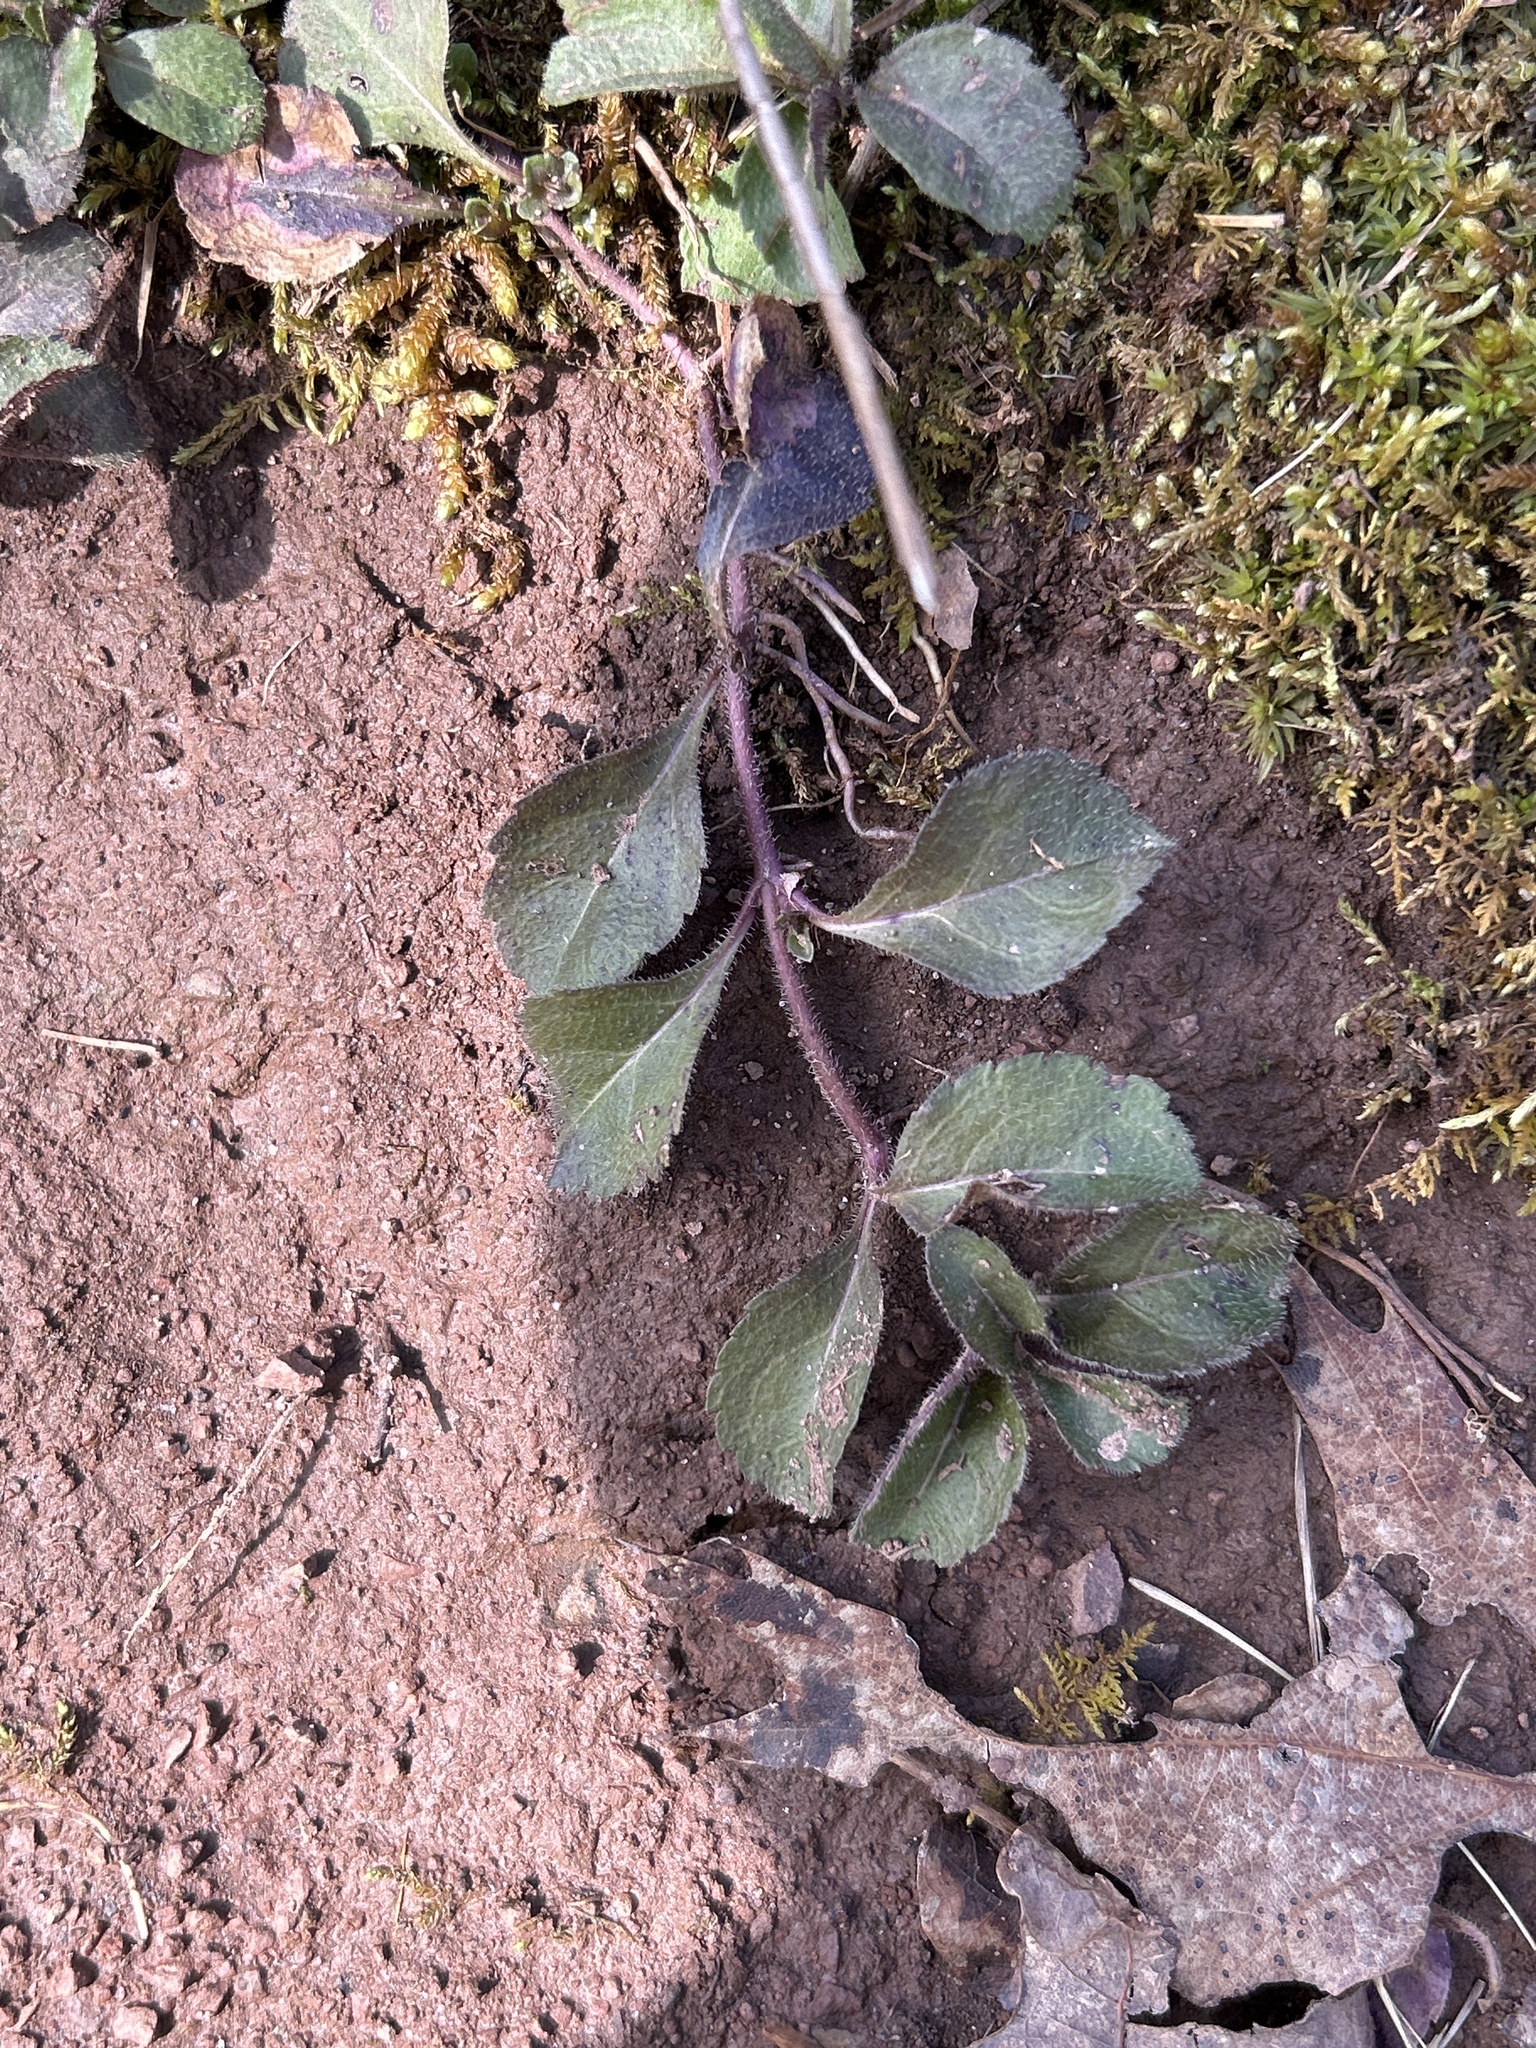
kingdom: Plantae
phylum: Tracheophyta
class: Magnoliopsida
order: Lamiales
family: Plantaginaceae
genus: Veronica
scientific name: Veronica officinalis
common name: Common speedwell
